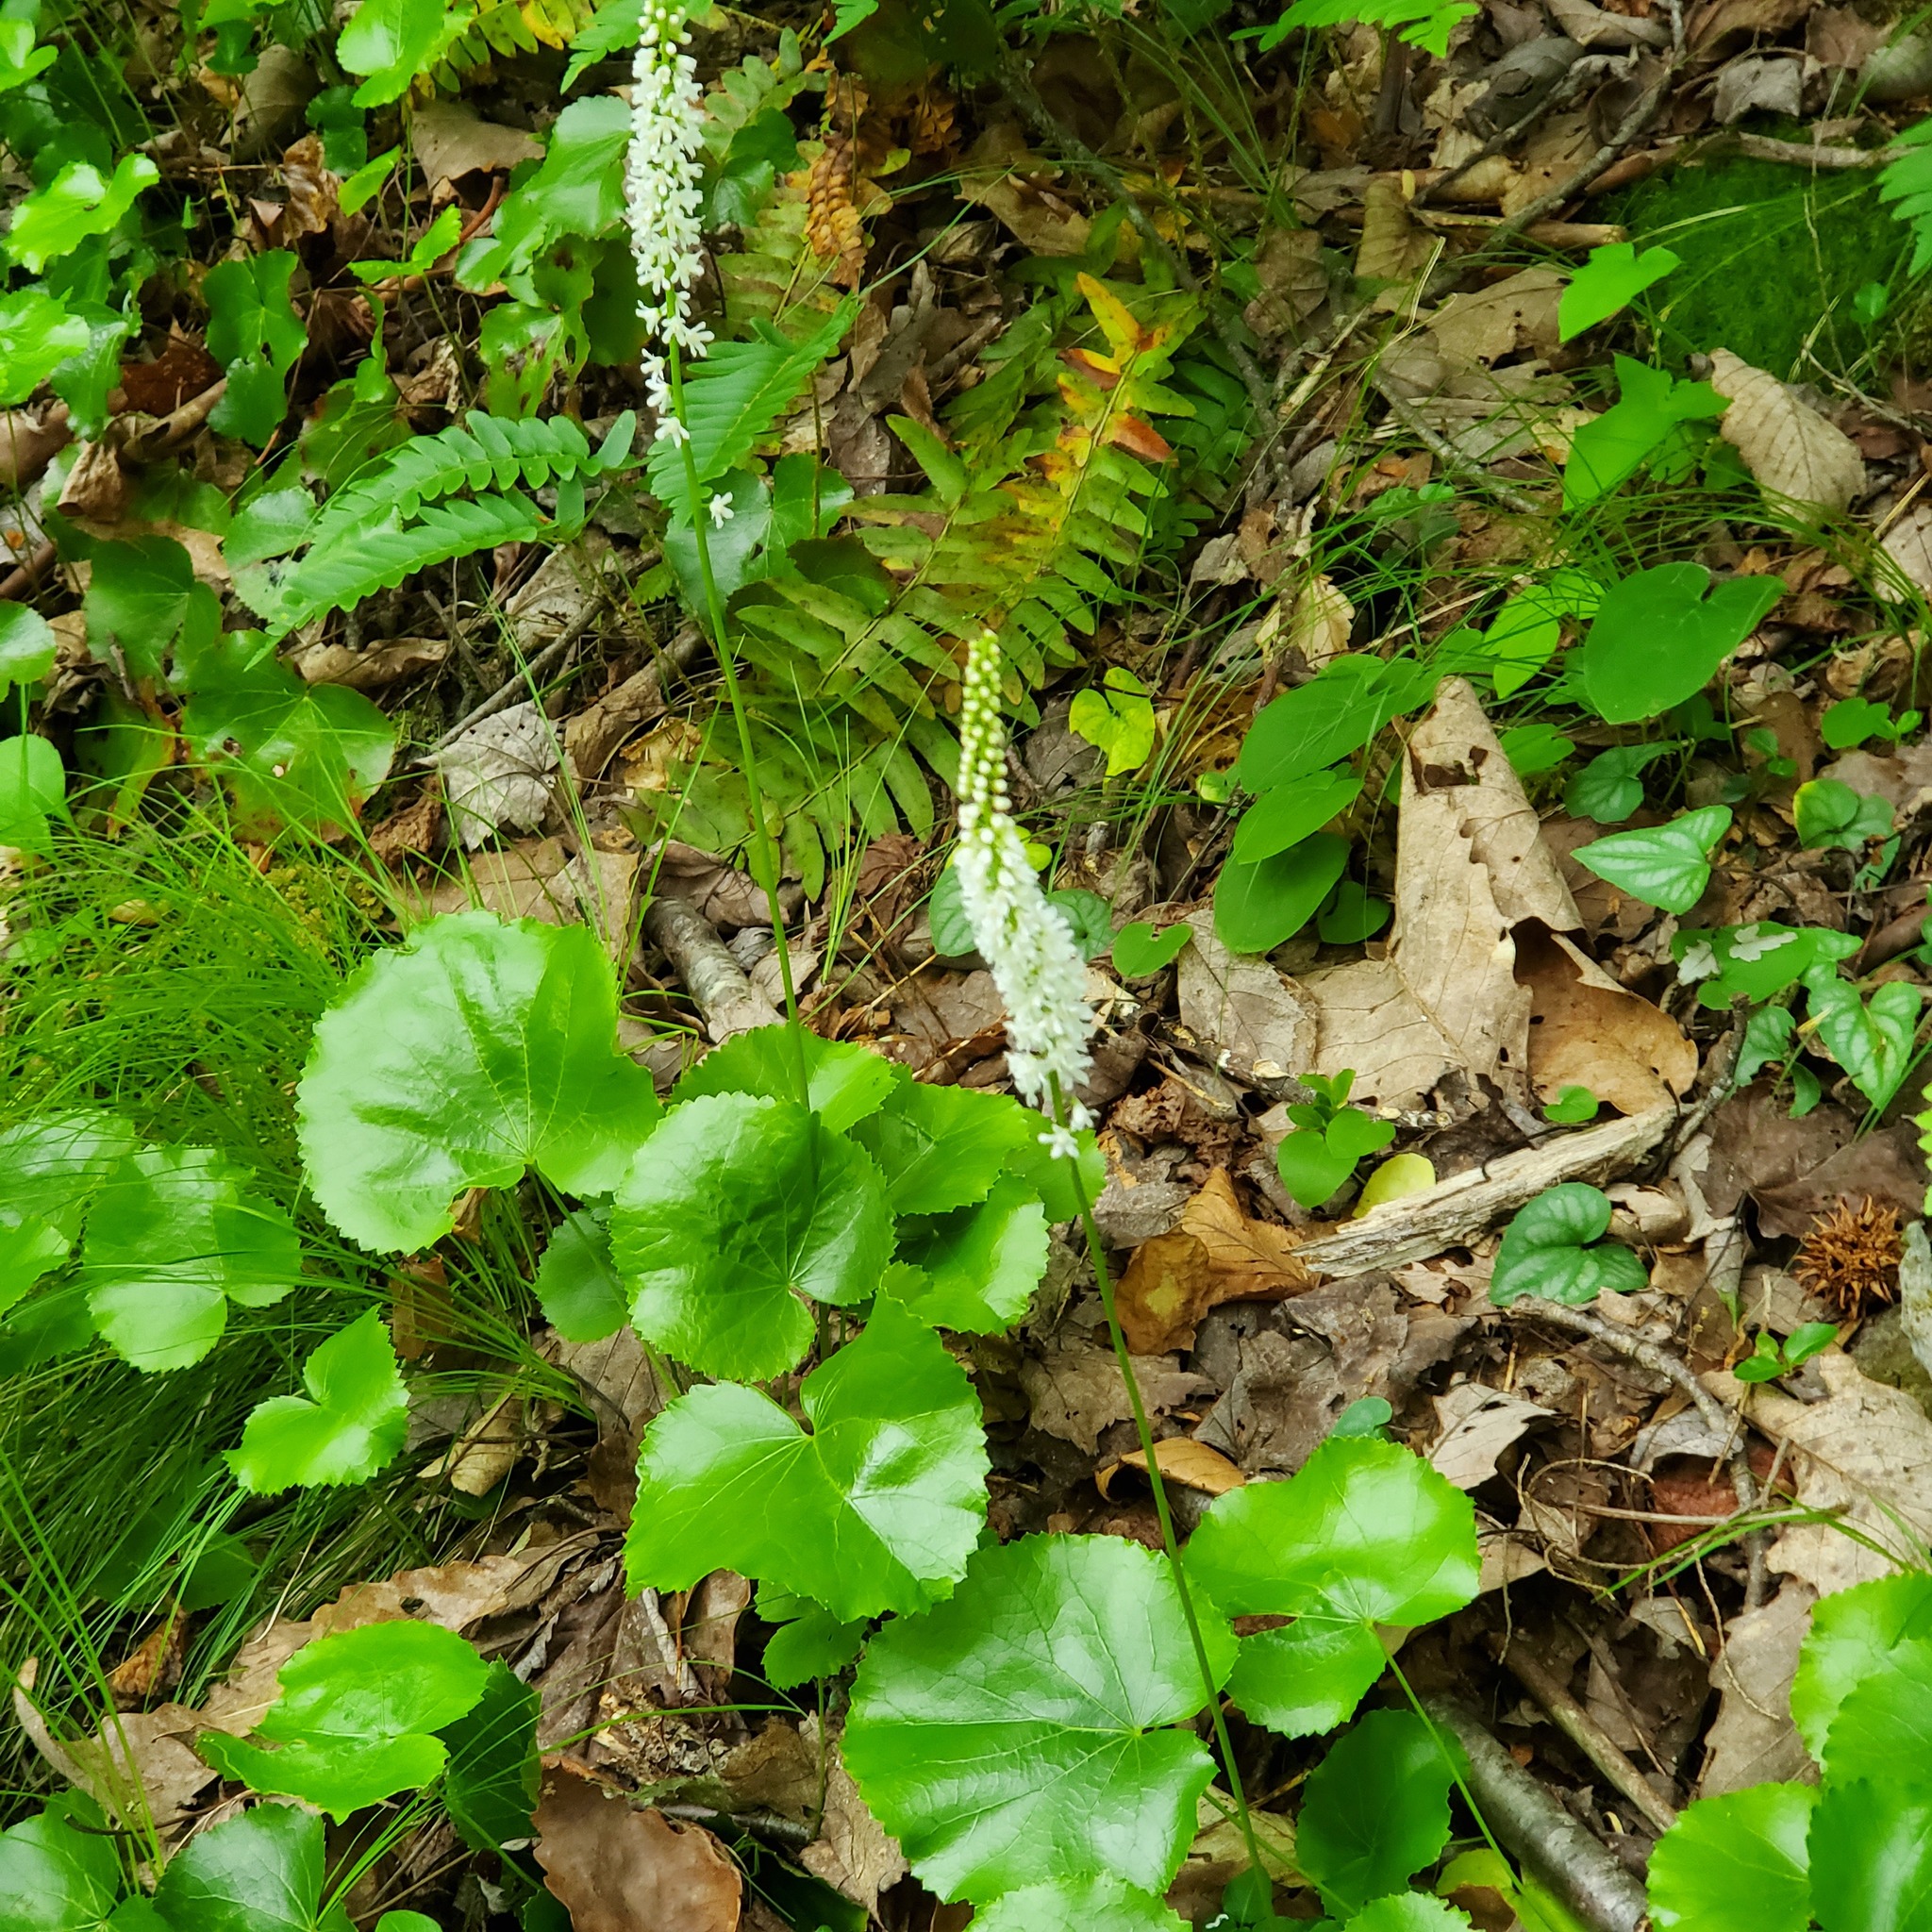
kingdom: Plantae
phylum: Tracheophyta
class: Magnoliopsida
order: Ericales
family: Diapensiaceae
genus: Galax
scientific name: Galax urceolata
